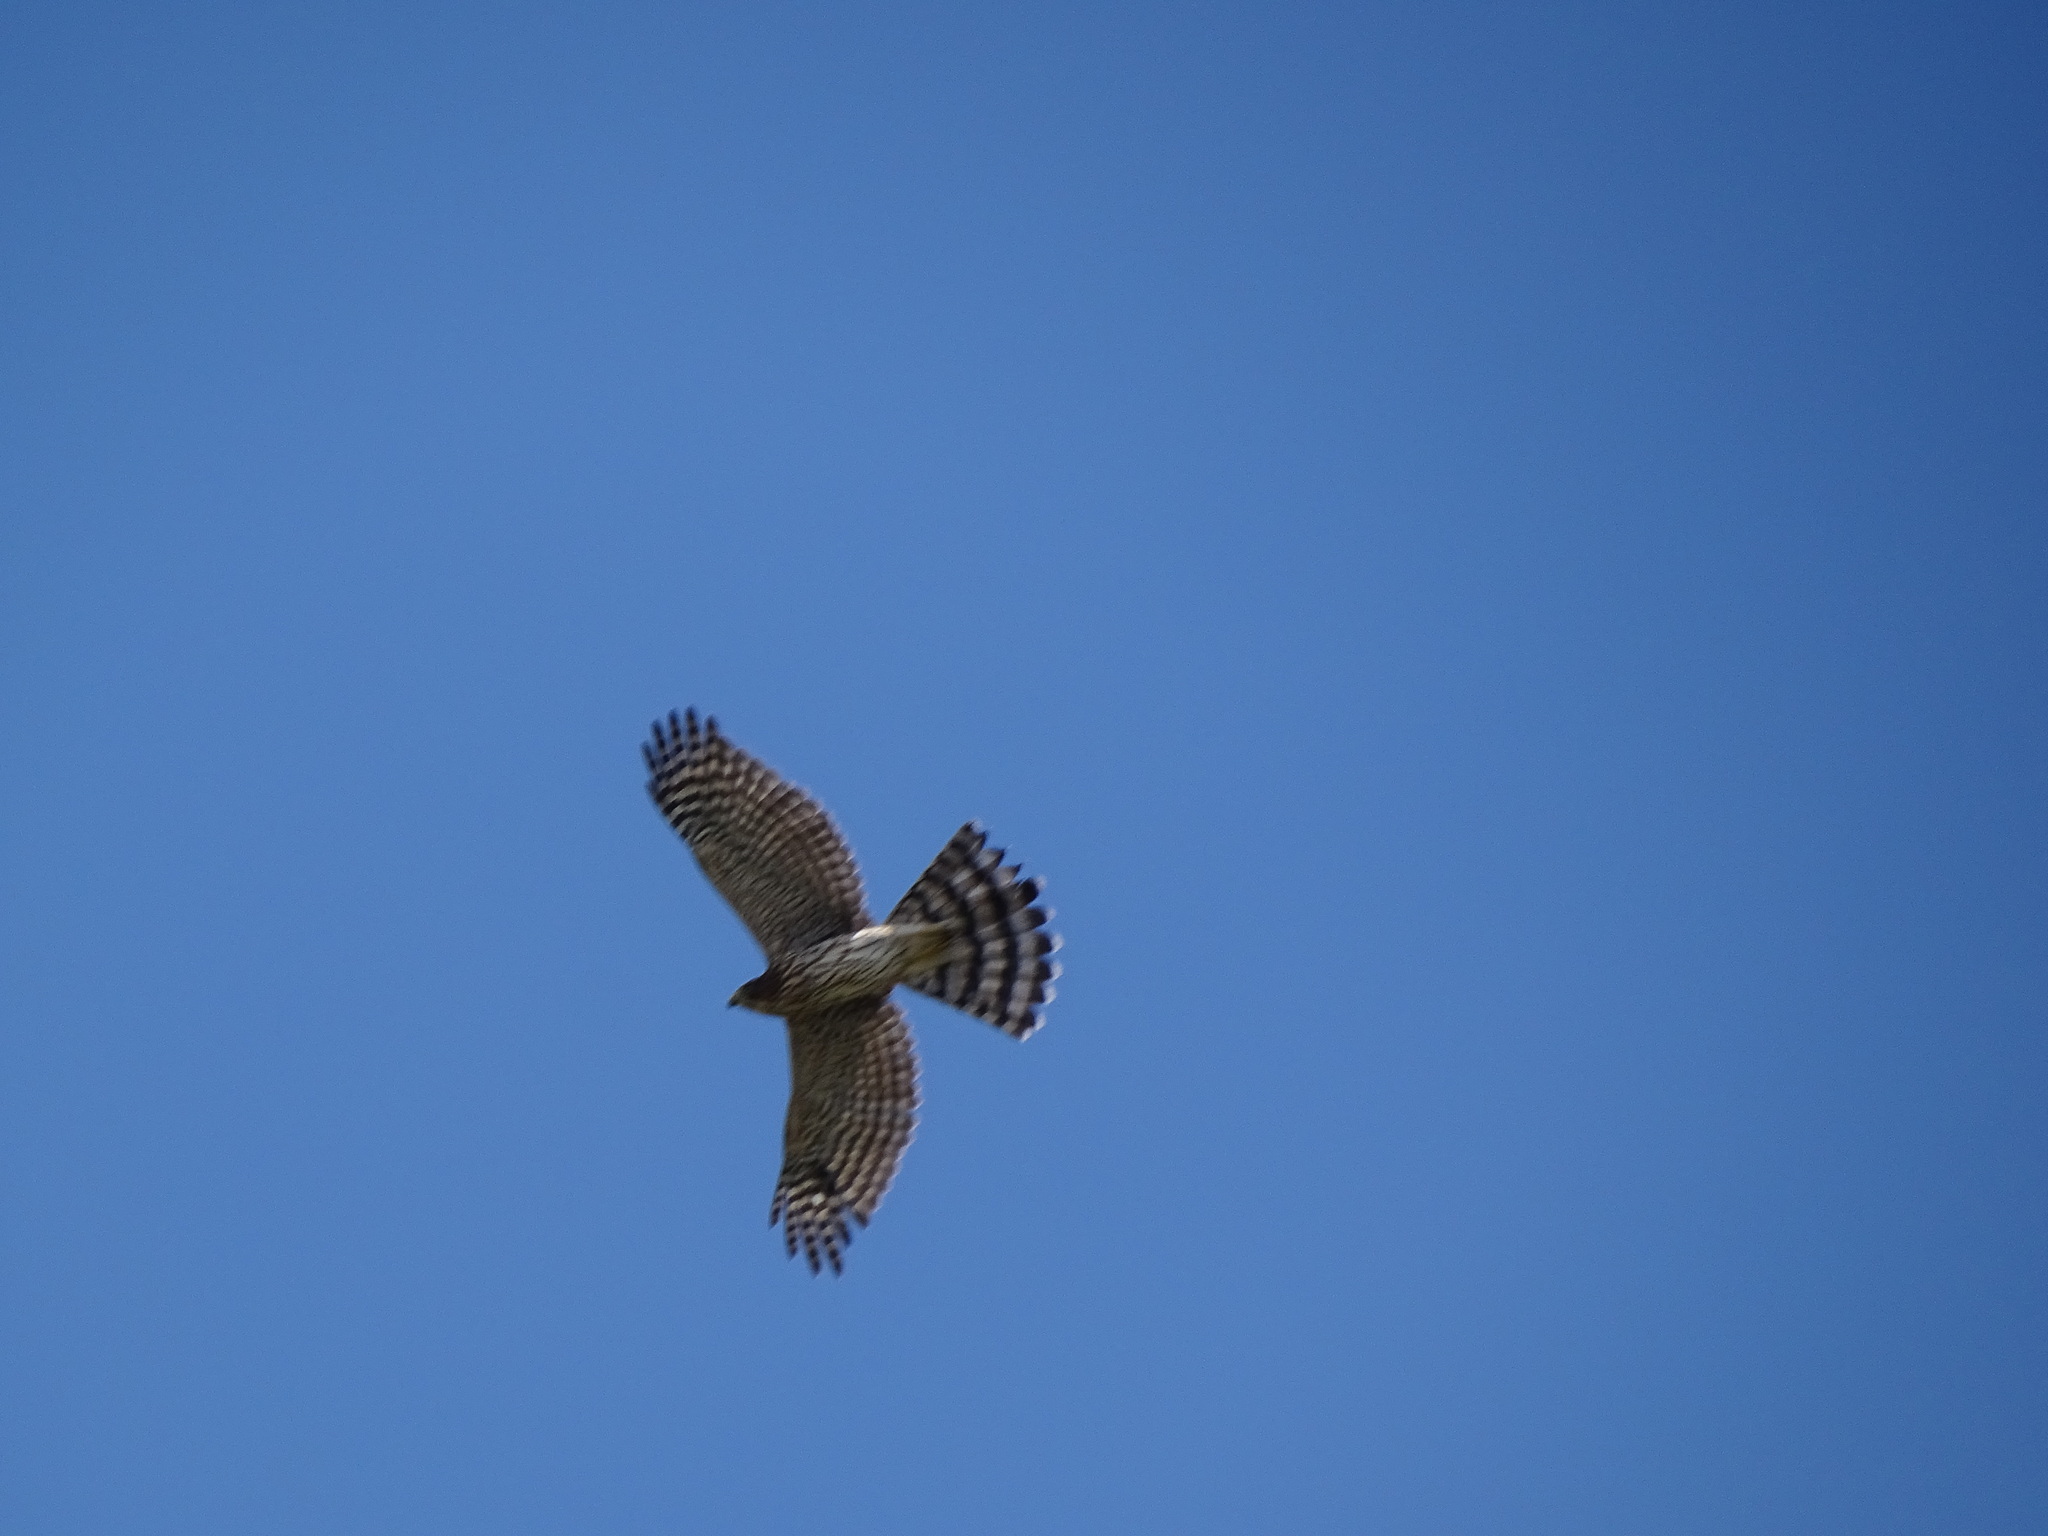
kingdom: Animalia
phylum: Chordata
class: Aves
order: Accipitriformes
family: Accipitridae
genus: Accipiter
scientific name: Accipiter cooperii
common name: Cooper's hawk
